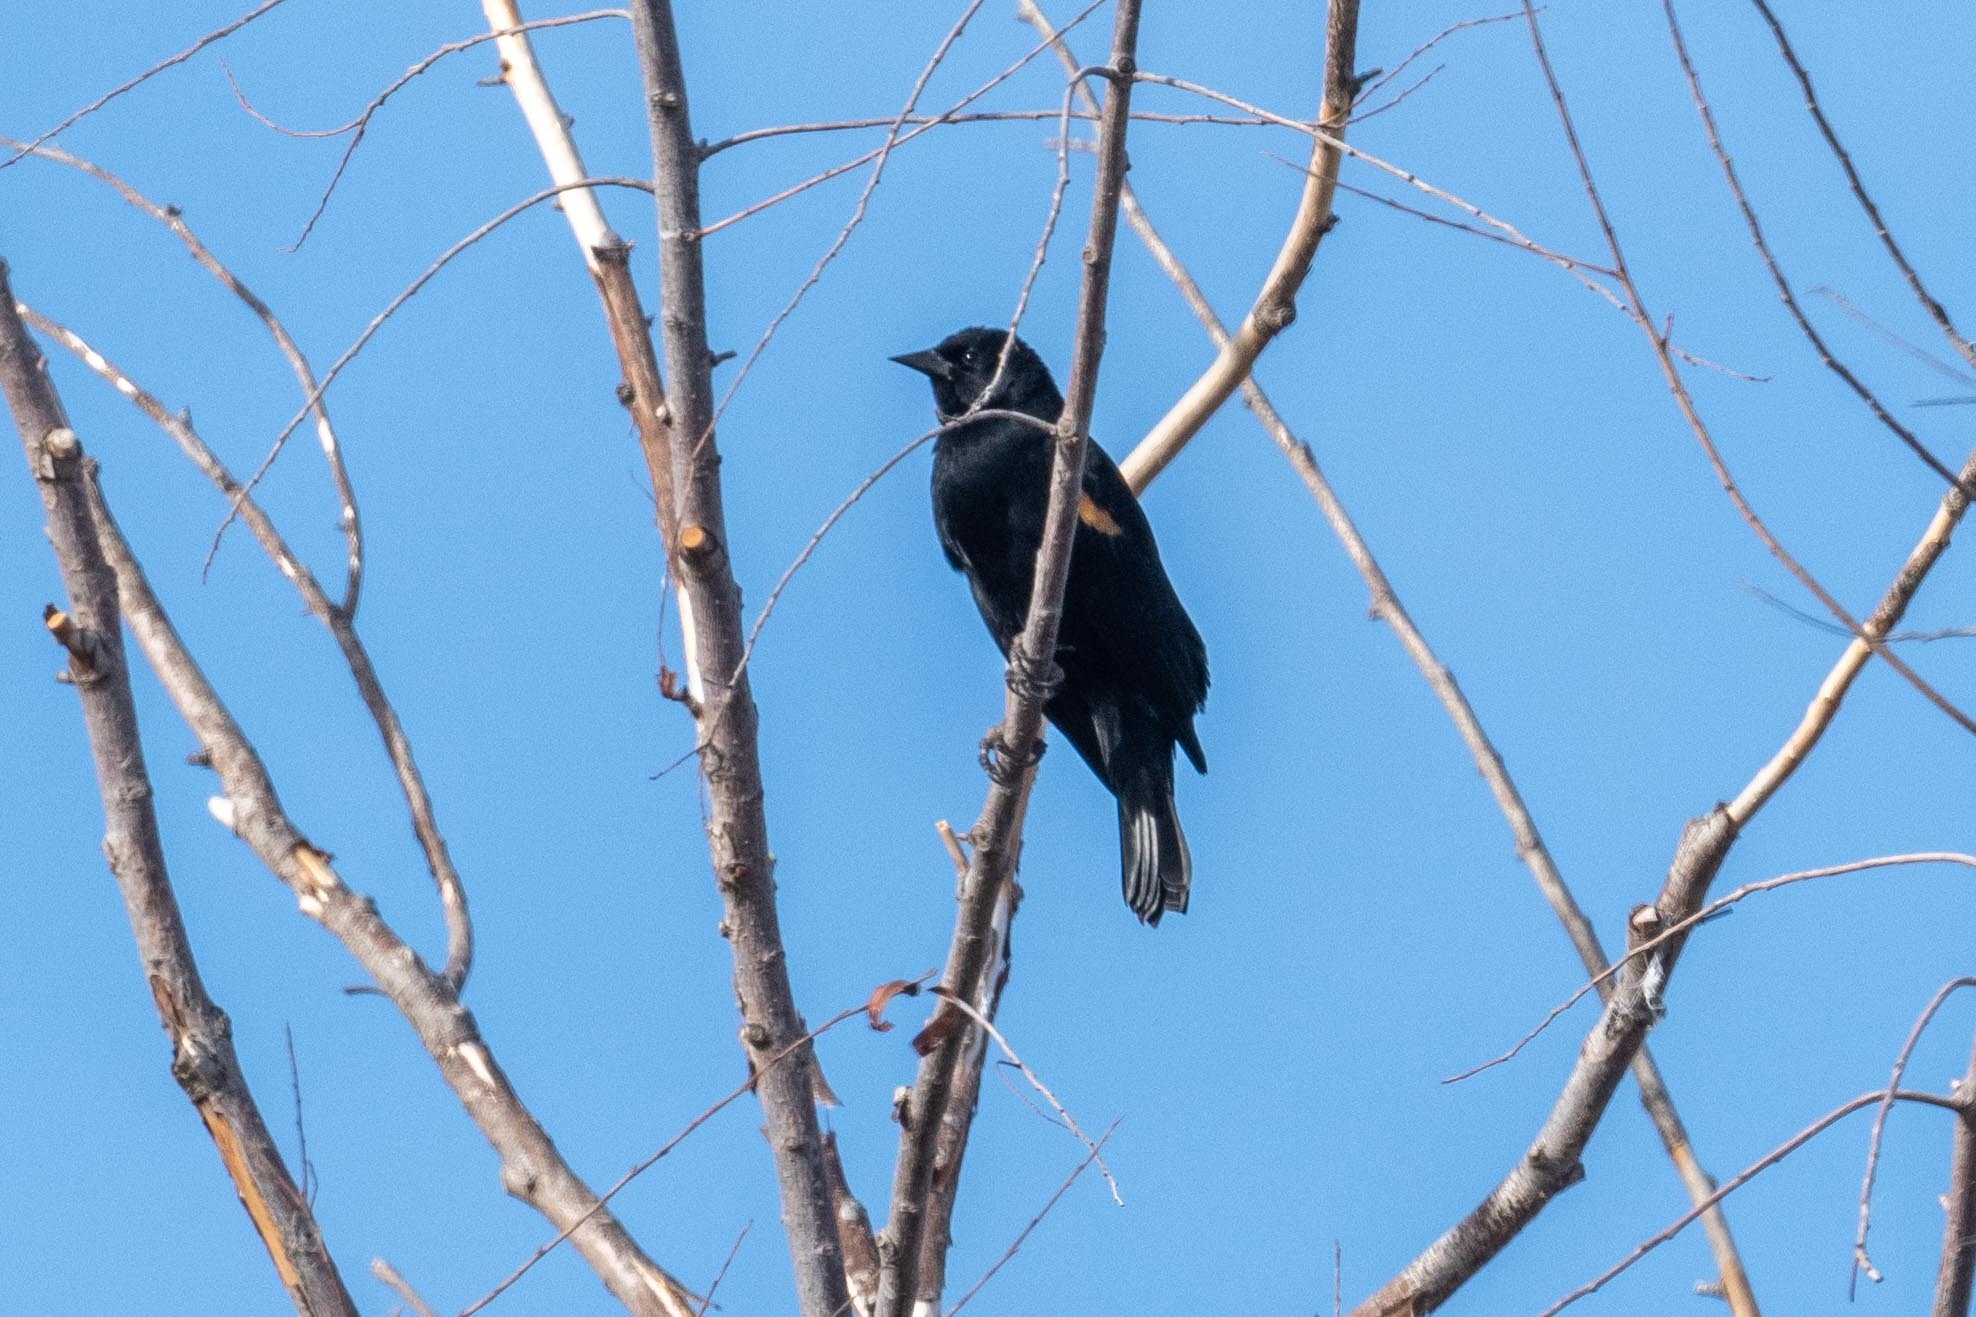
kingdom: Animalia
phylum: Chordata
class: Aves
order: Passeriformes
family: Icteridae
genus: Agelaius
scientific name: Agelaius phoeniceus
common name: Red-winged blackbird
